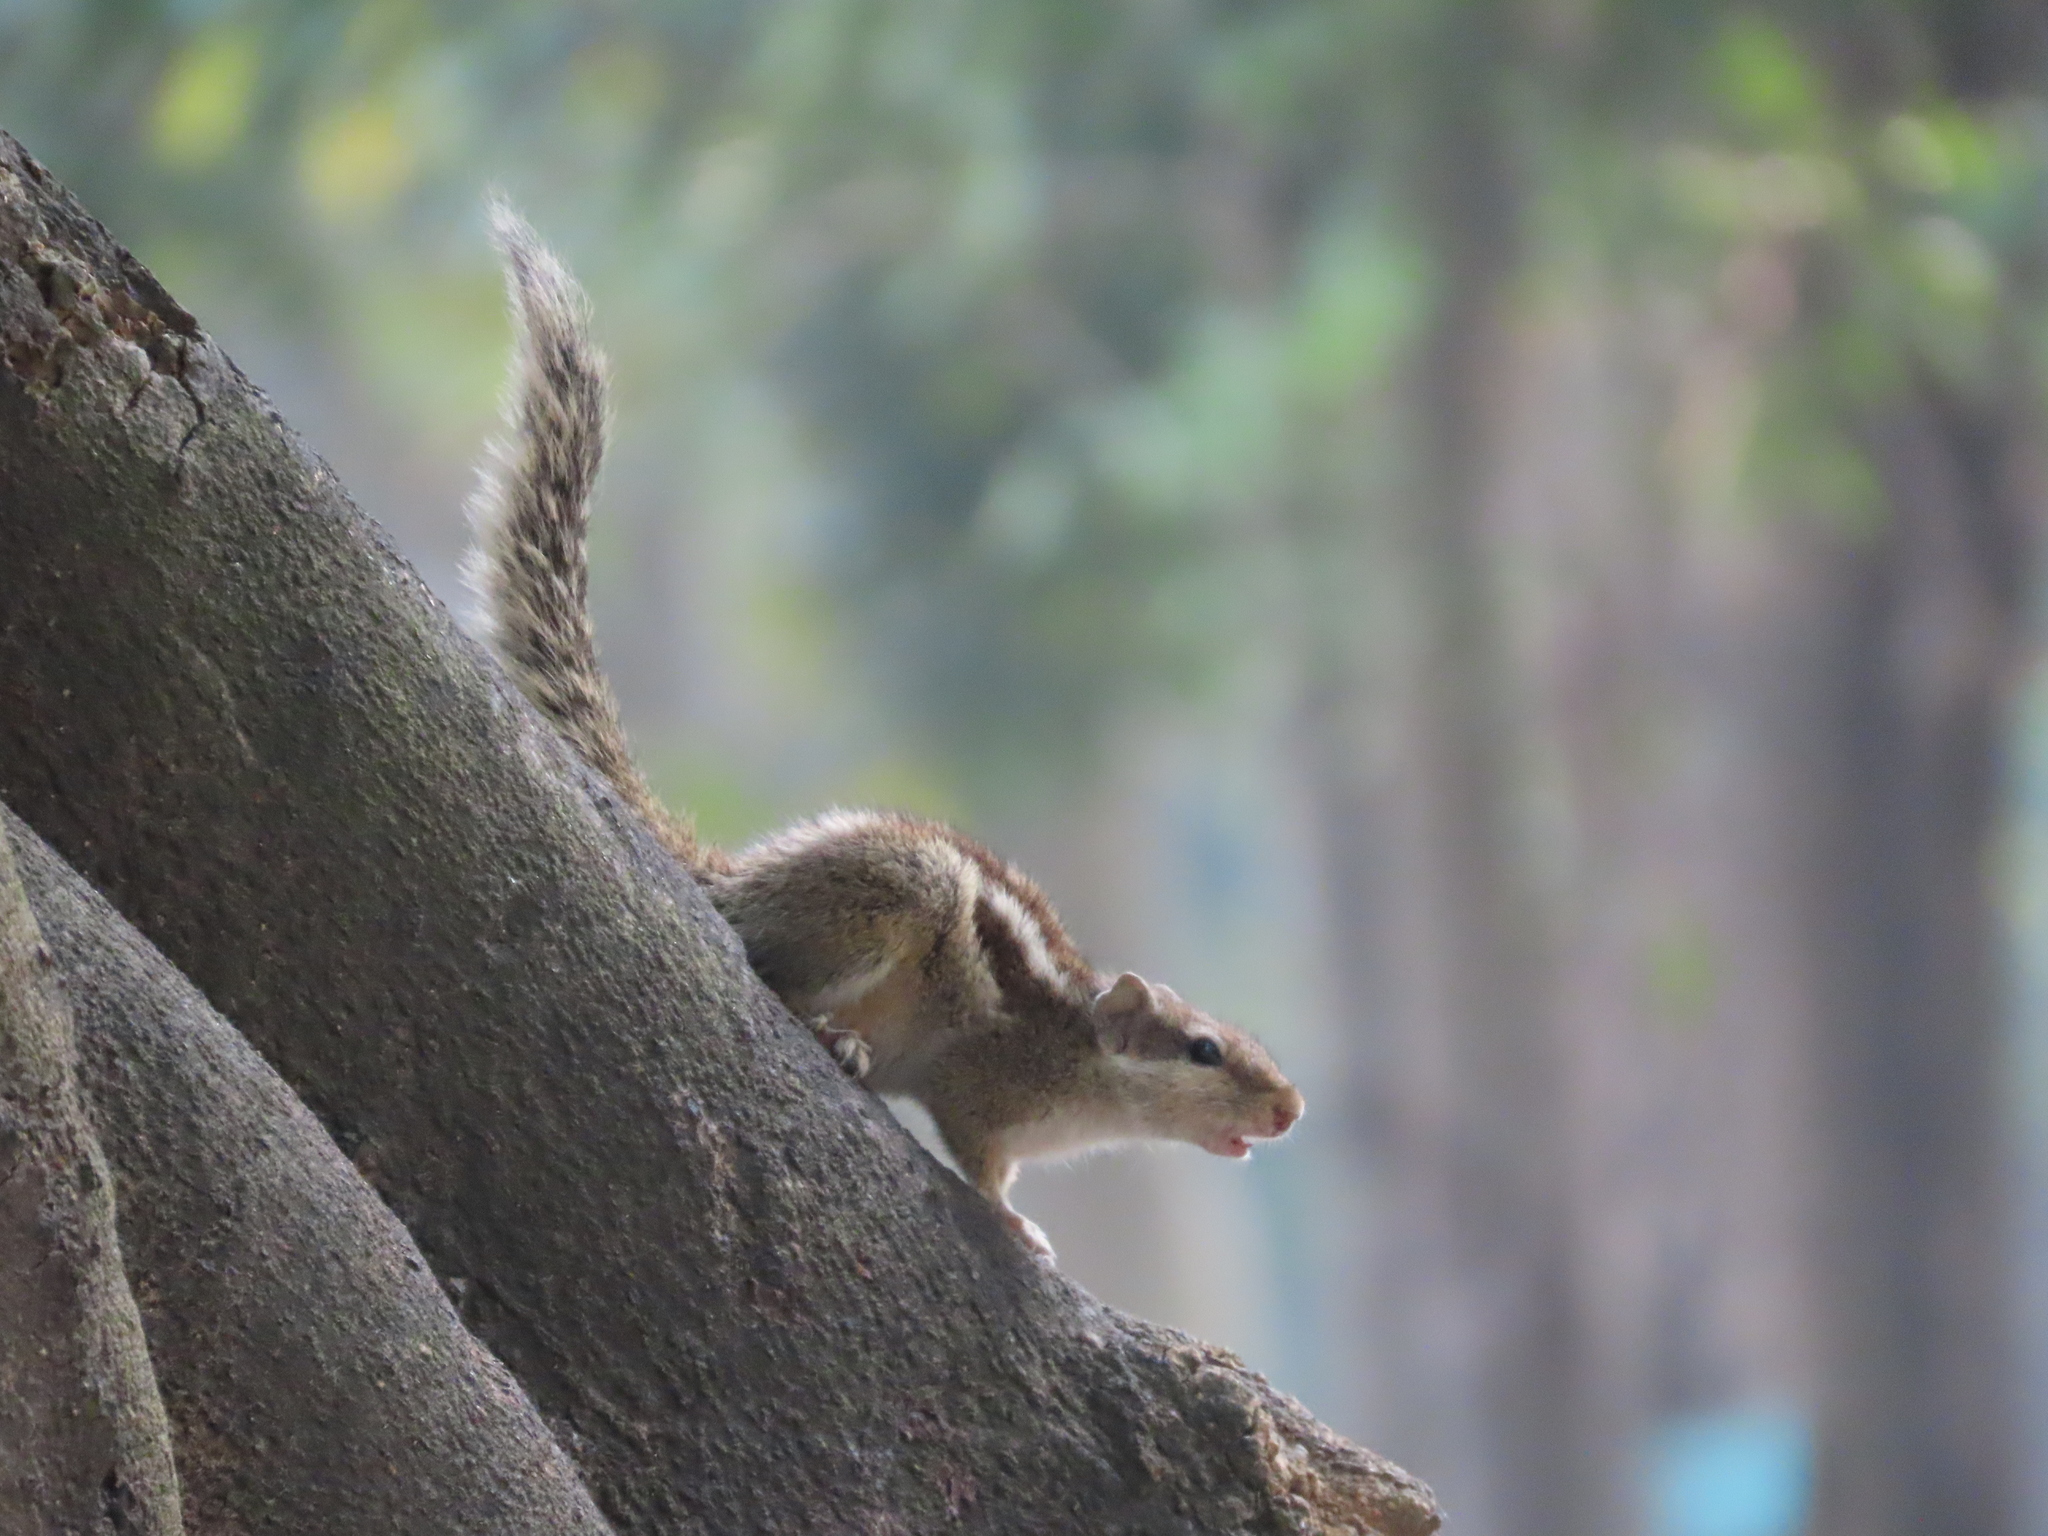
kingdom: Animalia
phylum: Chordata
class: Mammalia
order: Rodentia
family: Sciuridae
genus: Funambulus
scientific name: Funambulus pennantii
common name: Northern palm squirrel
